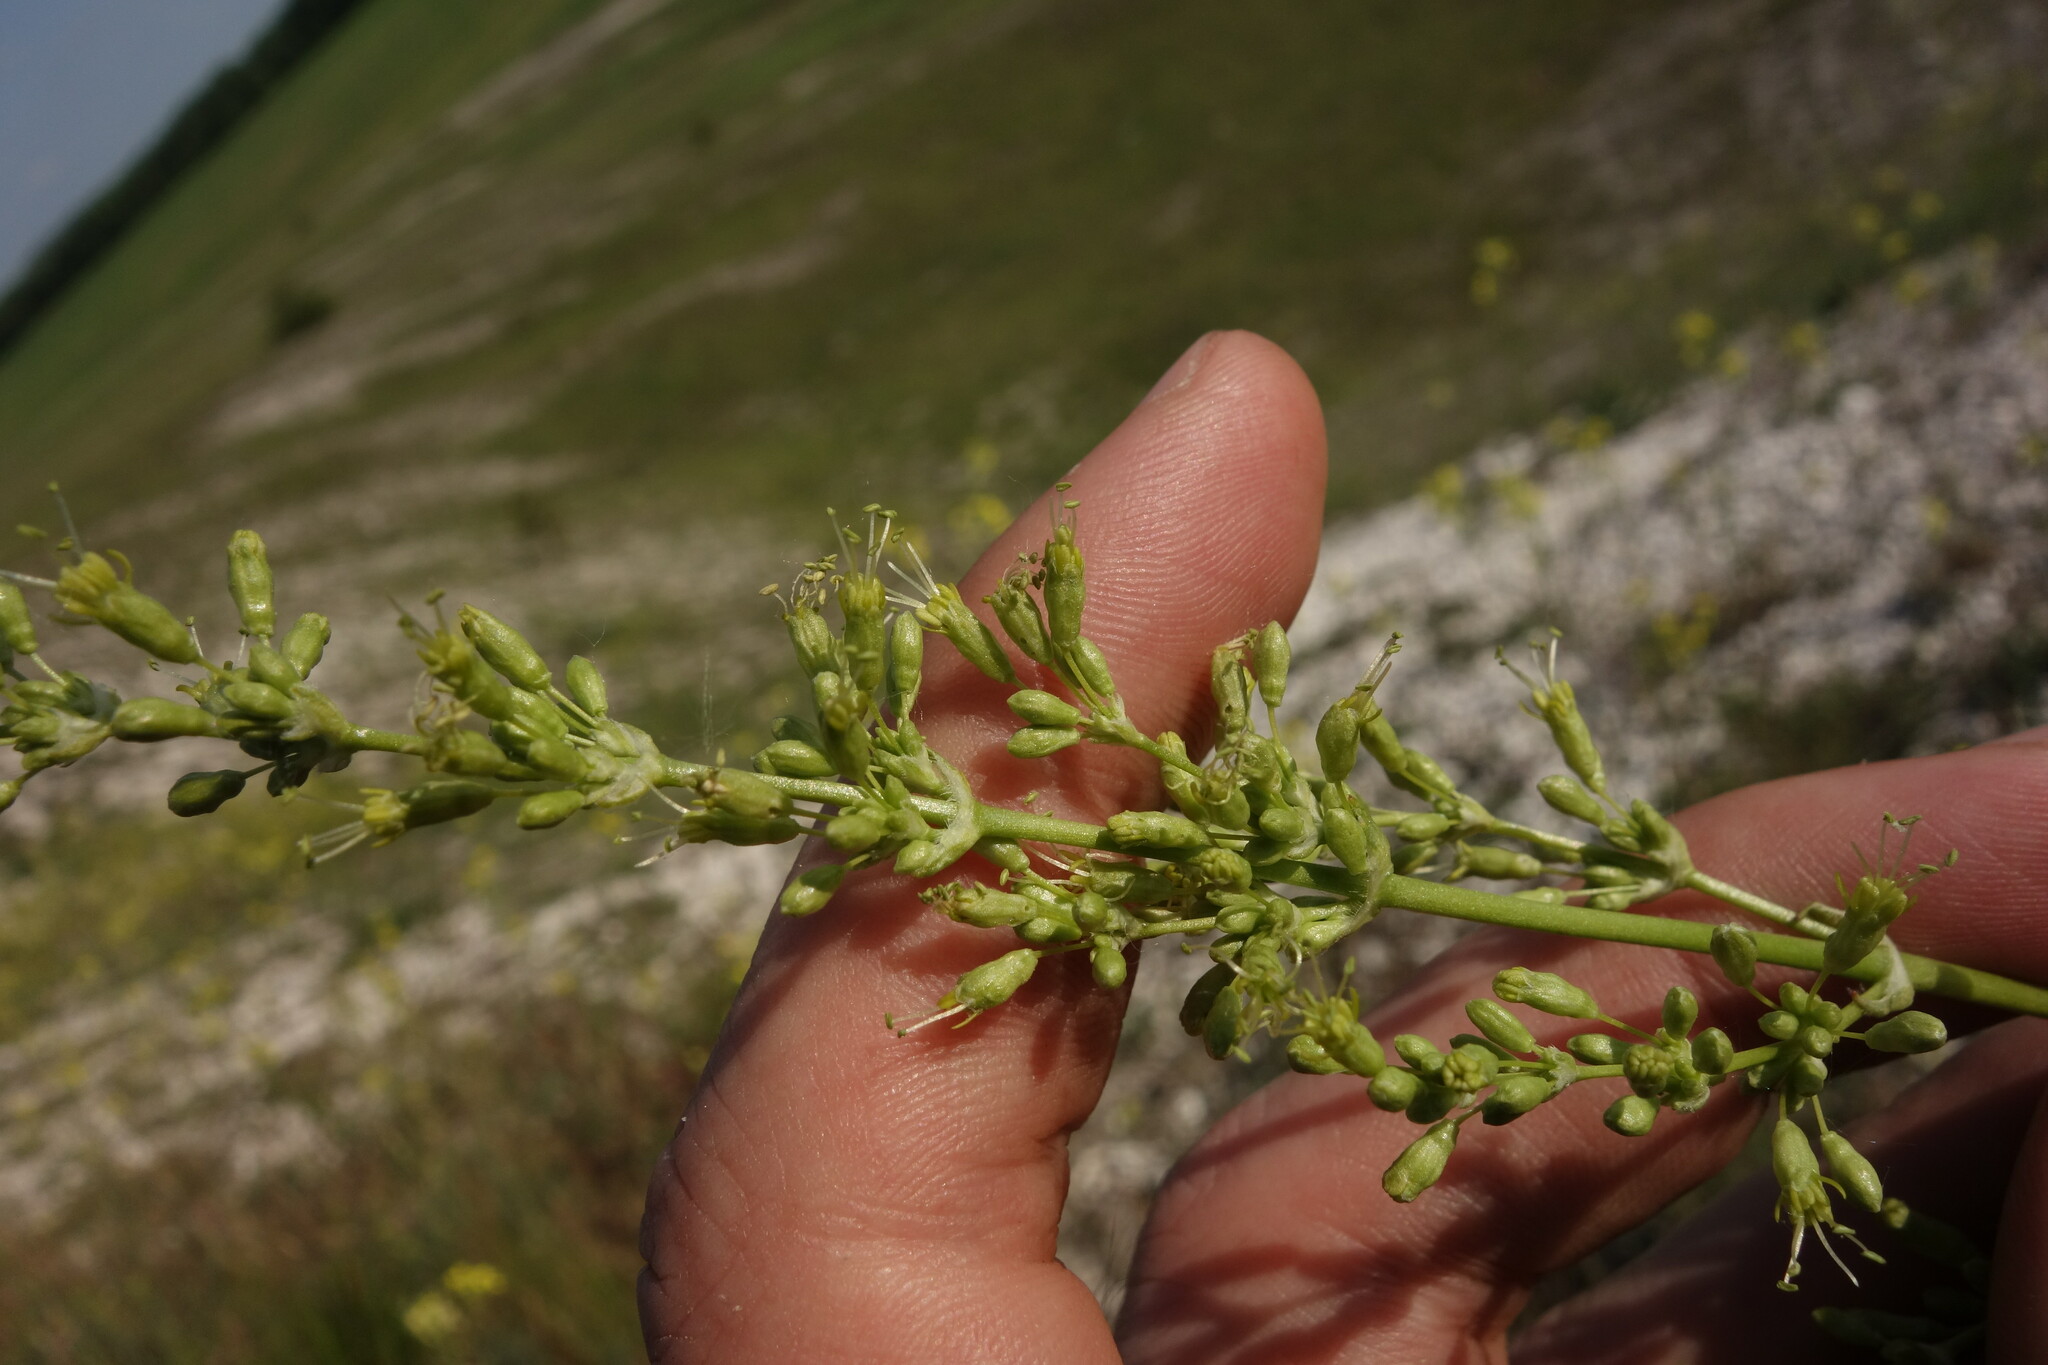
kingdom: Plantae
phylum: Tracheophyta
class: Magnoliopsida
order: Caryophyllales
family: Caryophyllaceae
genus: Silene
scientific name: Silene chersonensis
